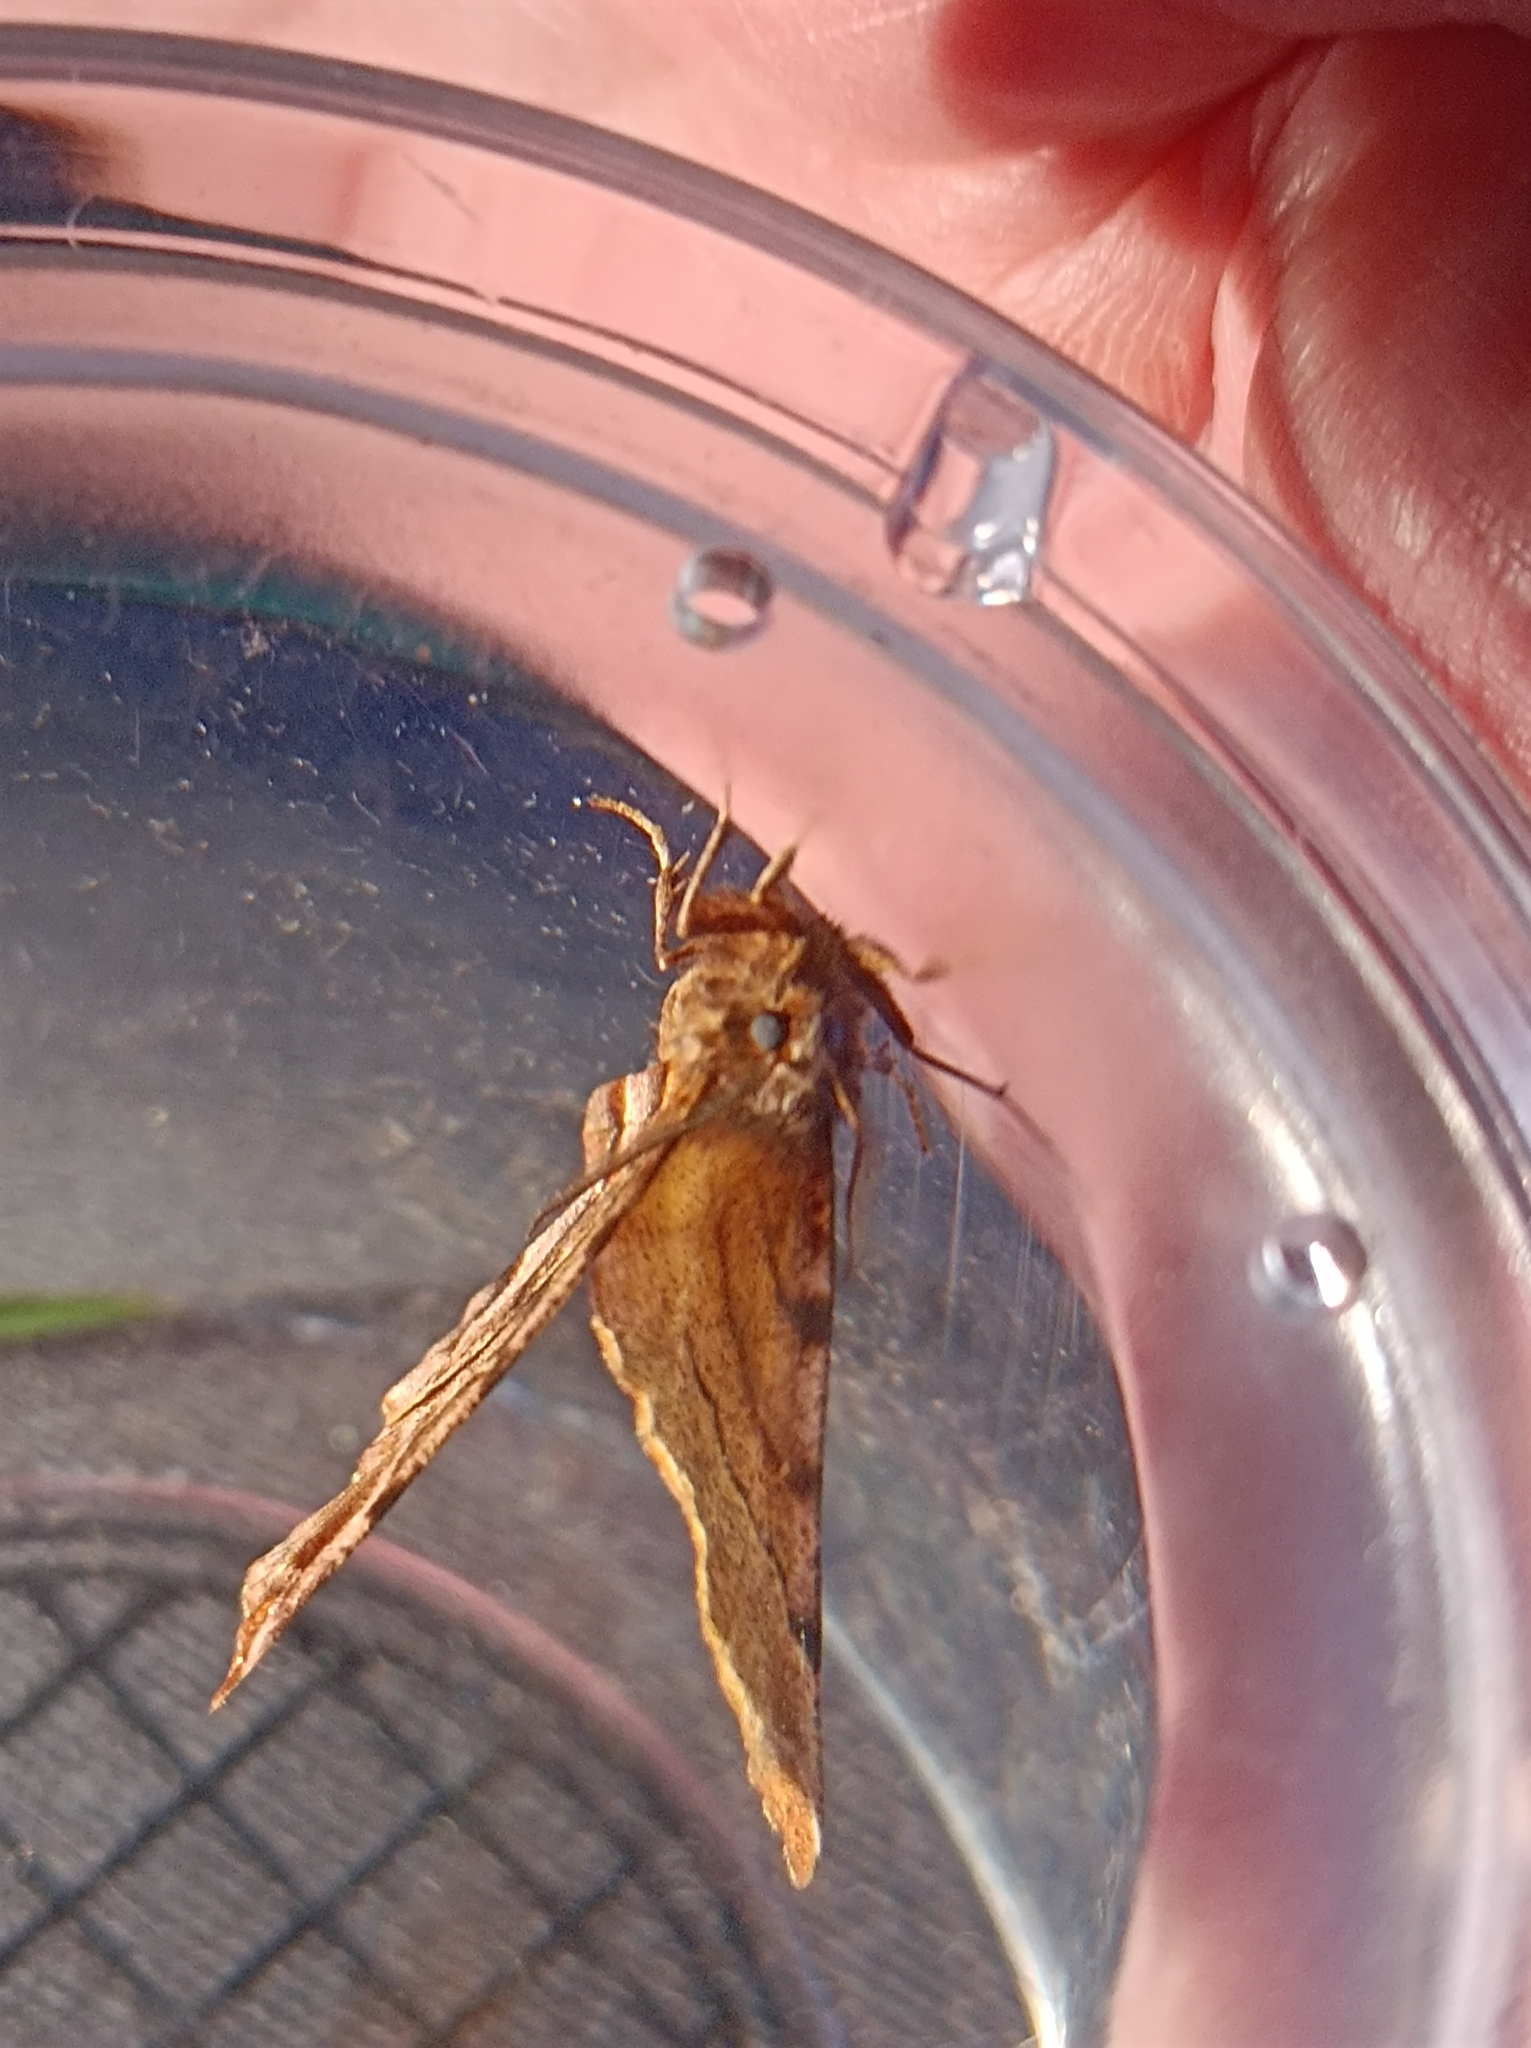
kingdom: Animalia
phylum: Arthropoda
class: Insecta
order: Lepidoptera
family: Geometridae
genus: Selenia
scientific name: Selenia dentaria
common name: Early thorn
